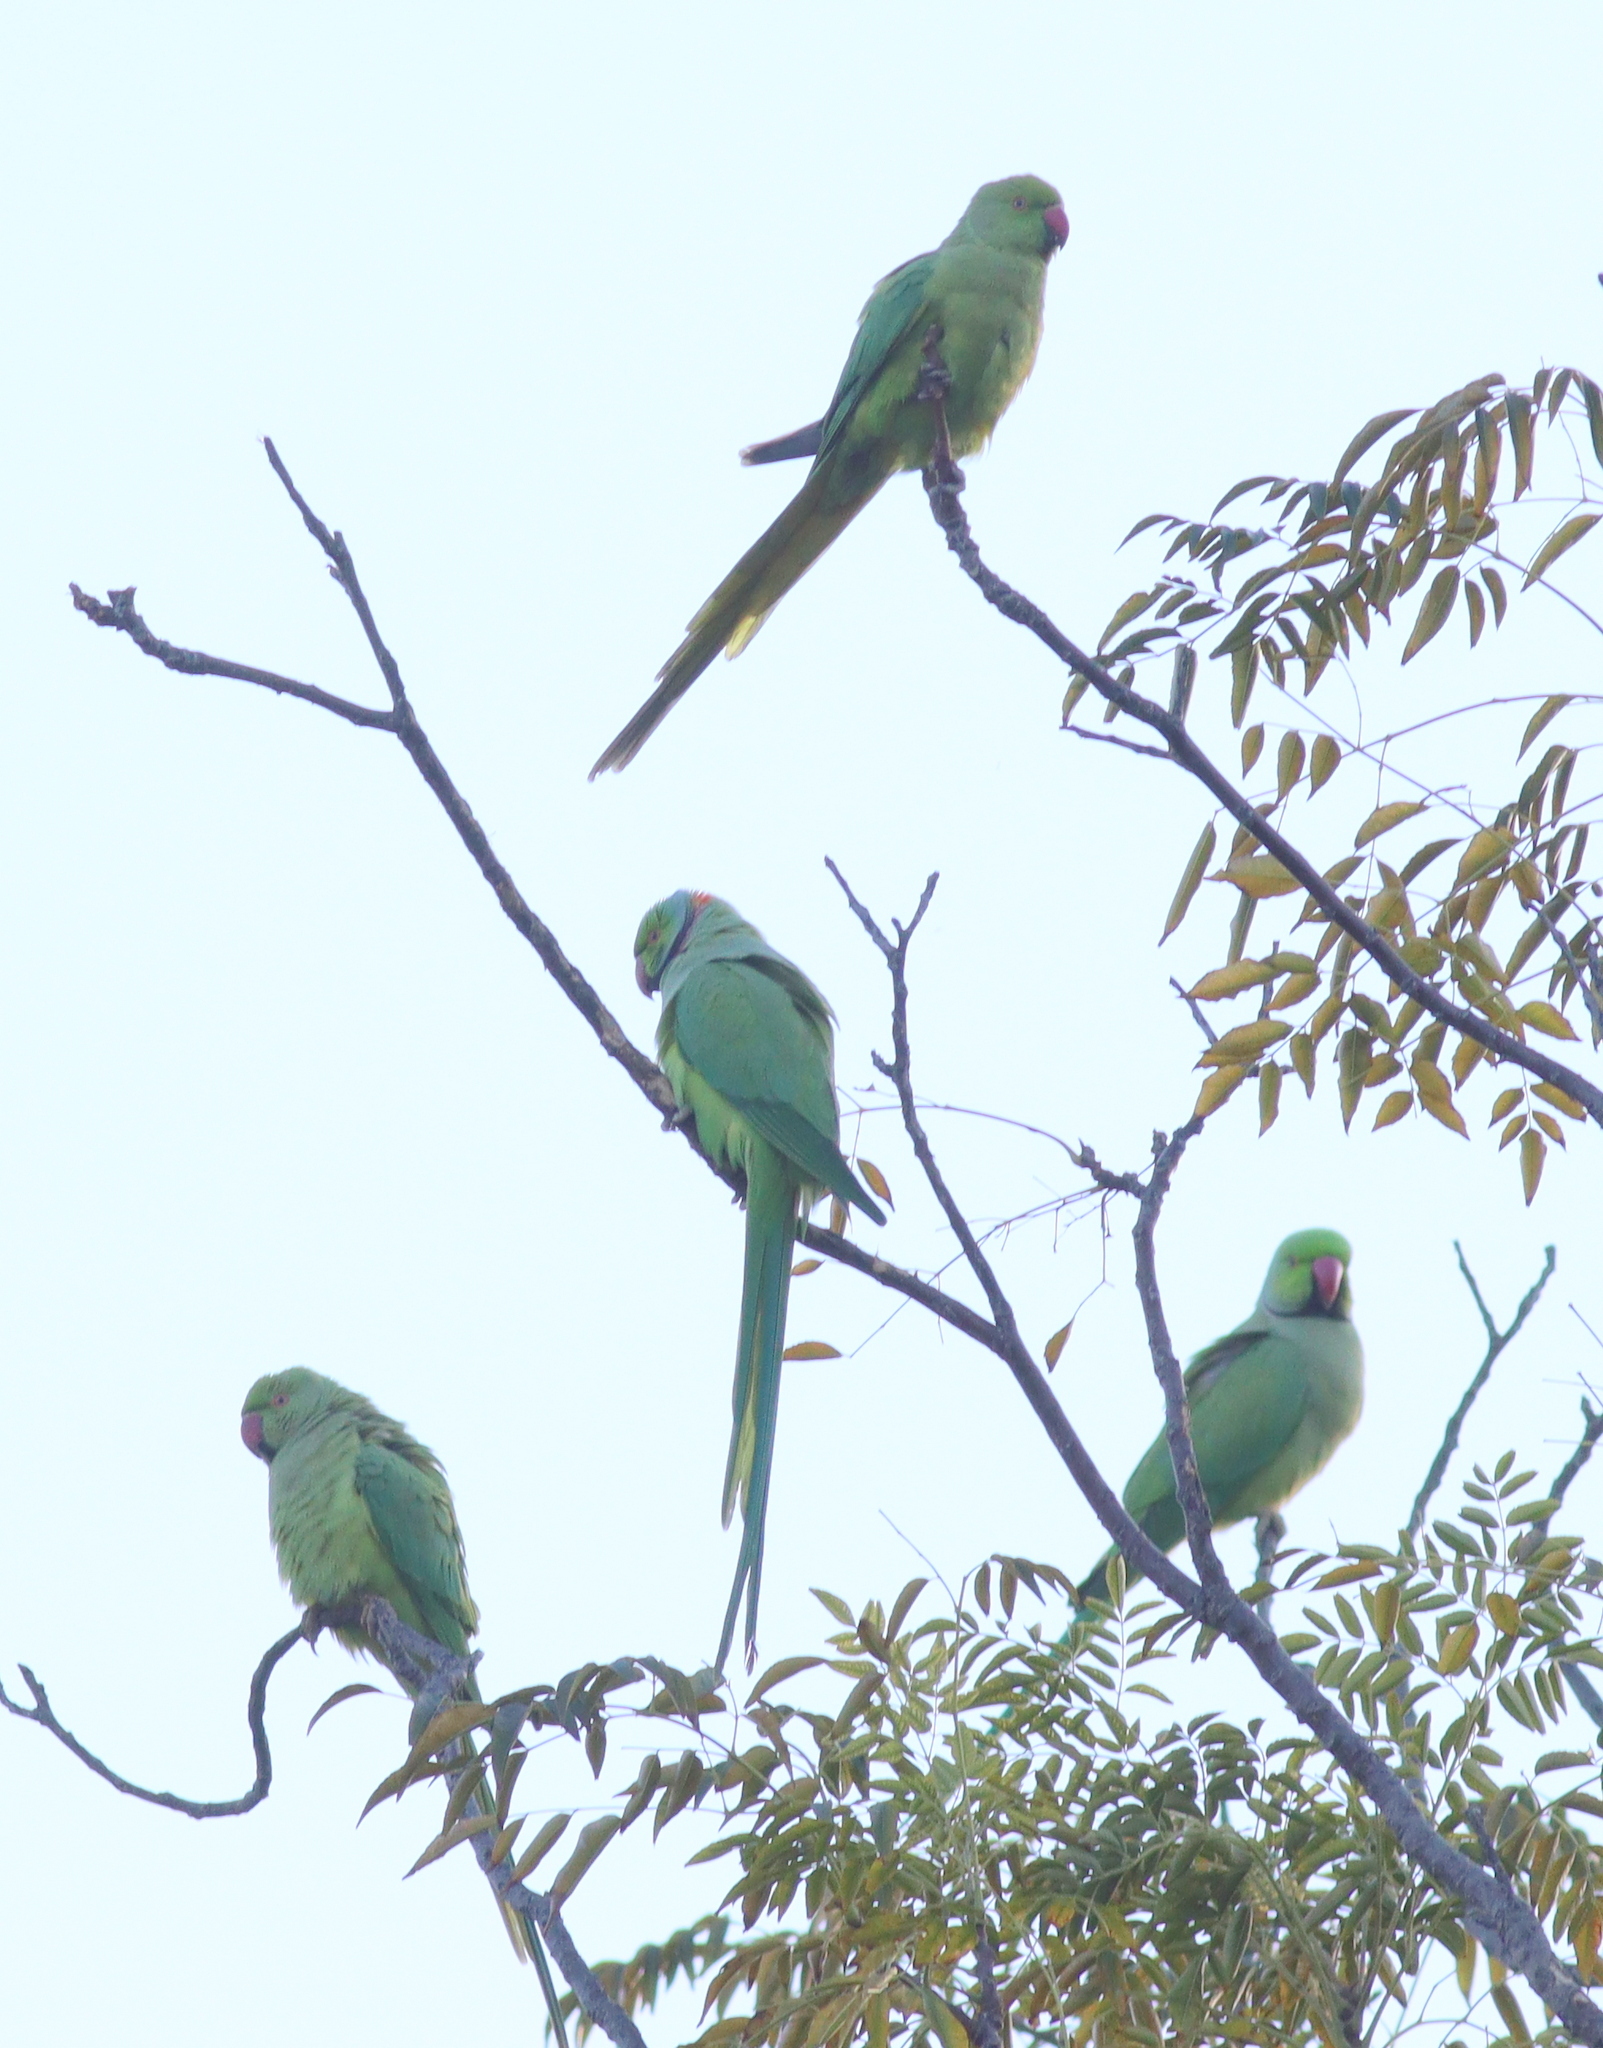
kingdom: Animalia
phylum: Chordata
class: Aves
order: Psittaciformes
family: Psittacidae
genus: Psittacula
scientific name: Psittacula krameri
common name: Rose-ringed parakeet
